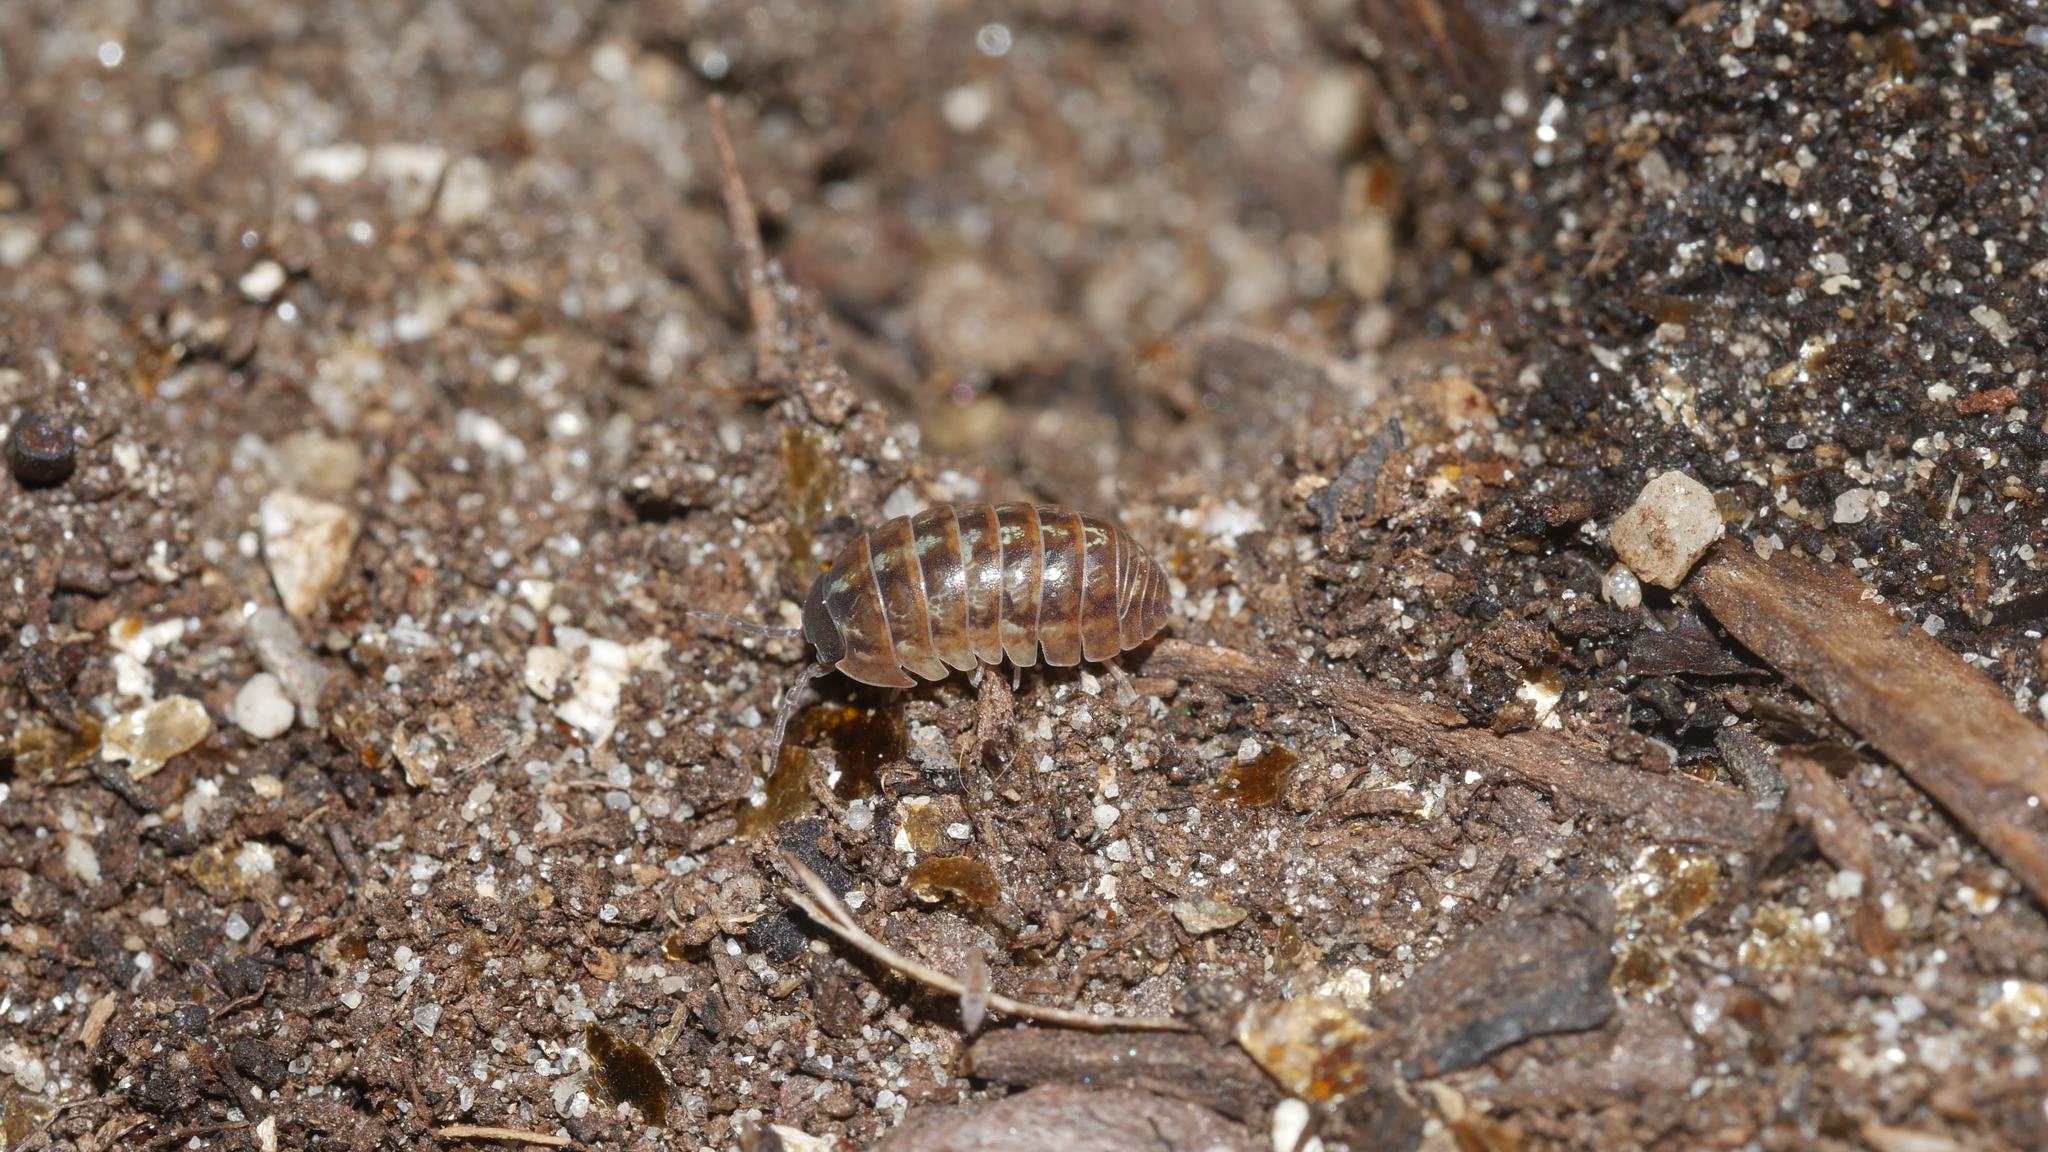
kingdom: Animalia
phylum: Arthropoda
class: Malacostraca
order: Isopoda
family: Armadillidiidae
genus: Armadillidium
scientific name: Armadillidium vulgare
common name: Common pill woodlouse
